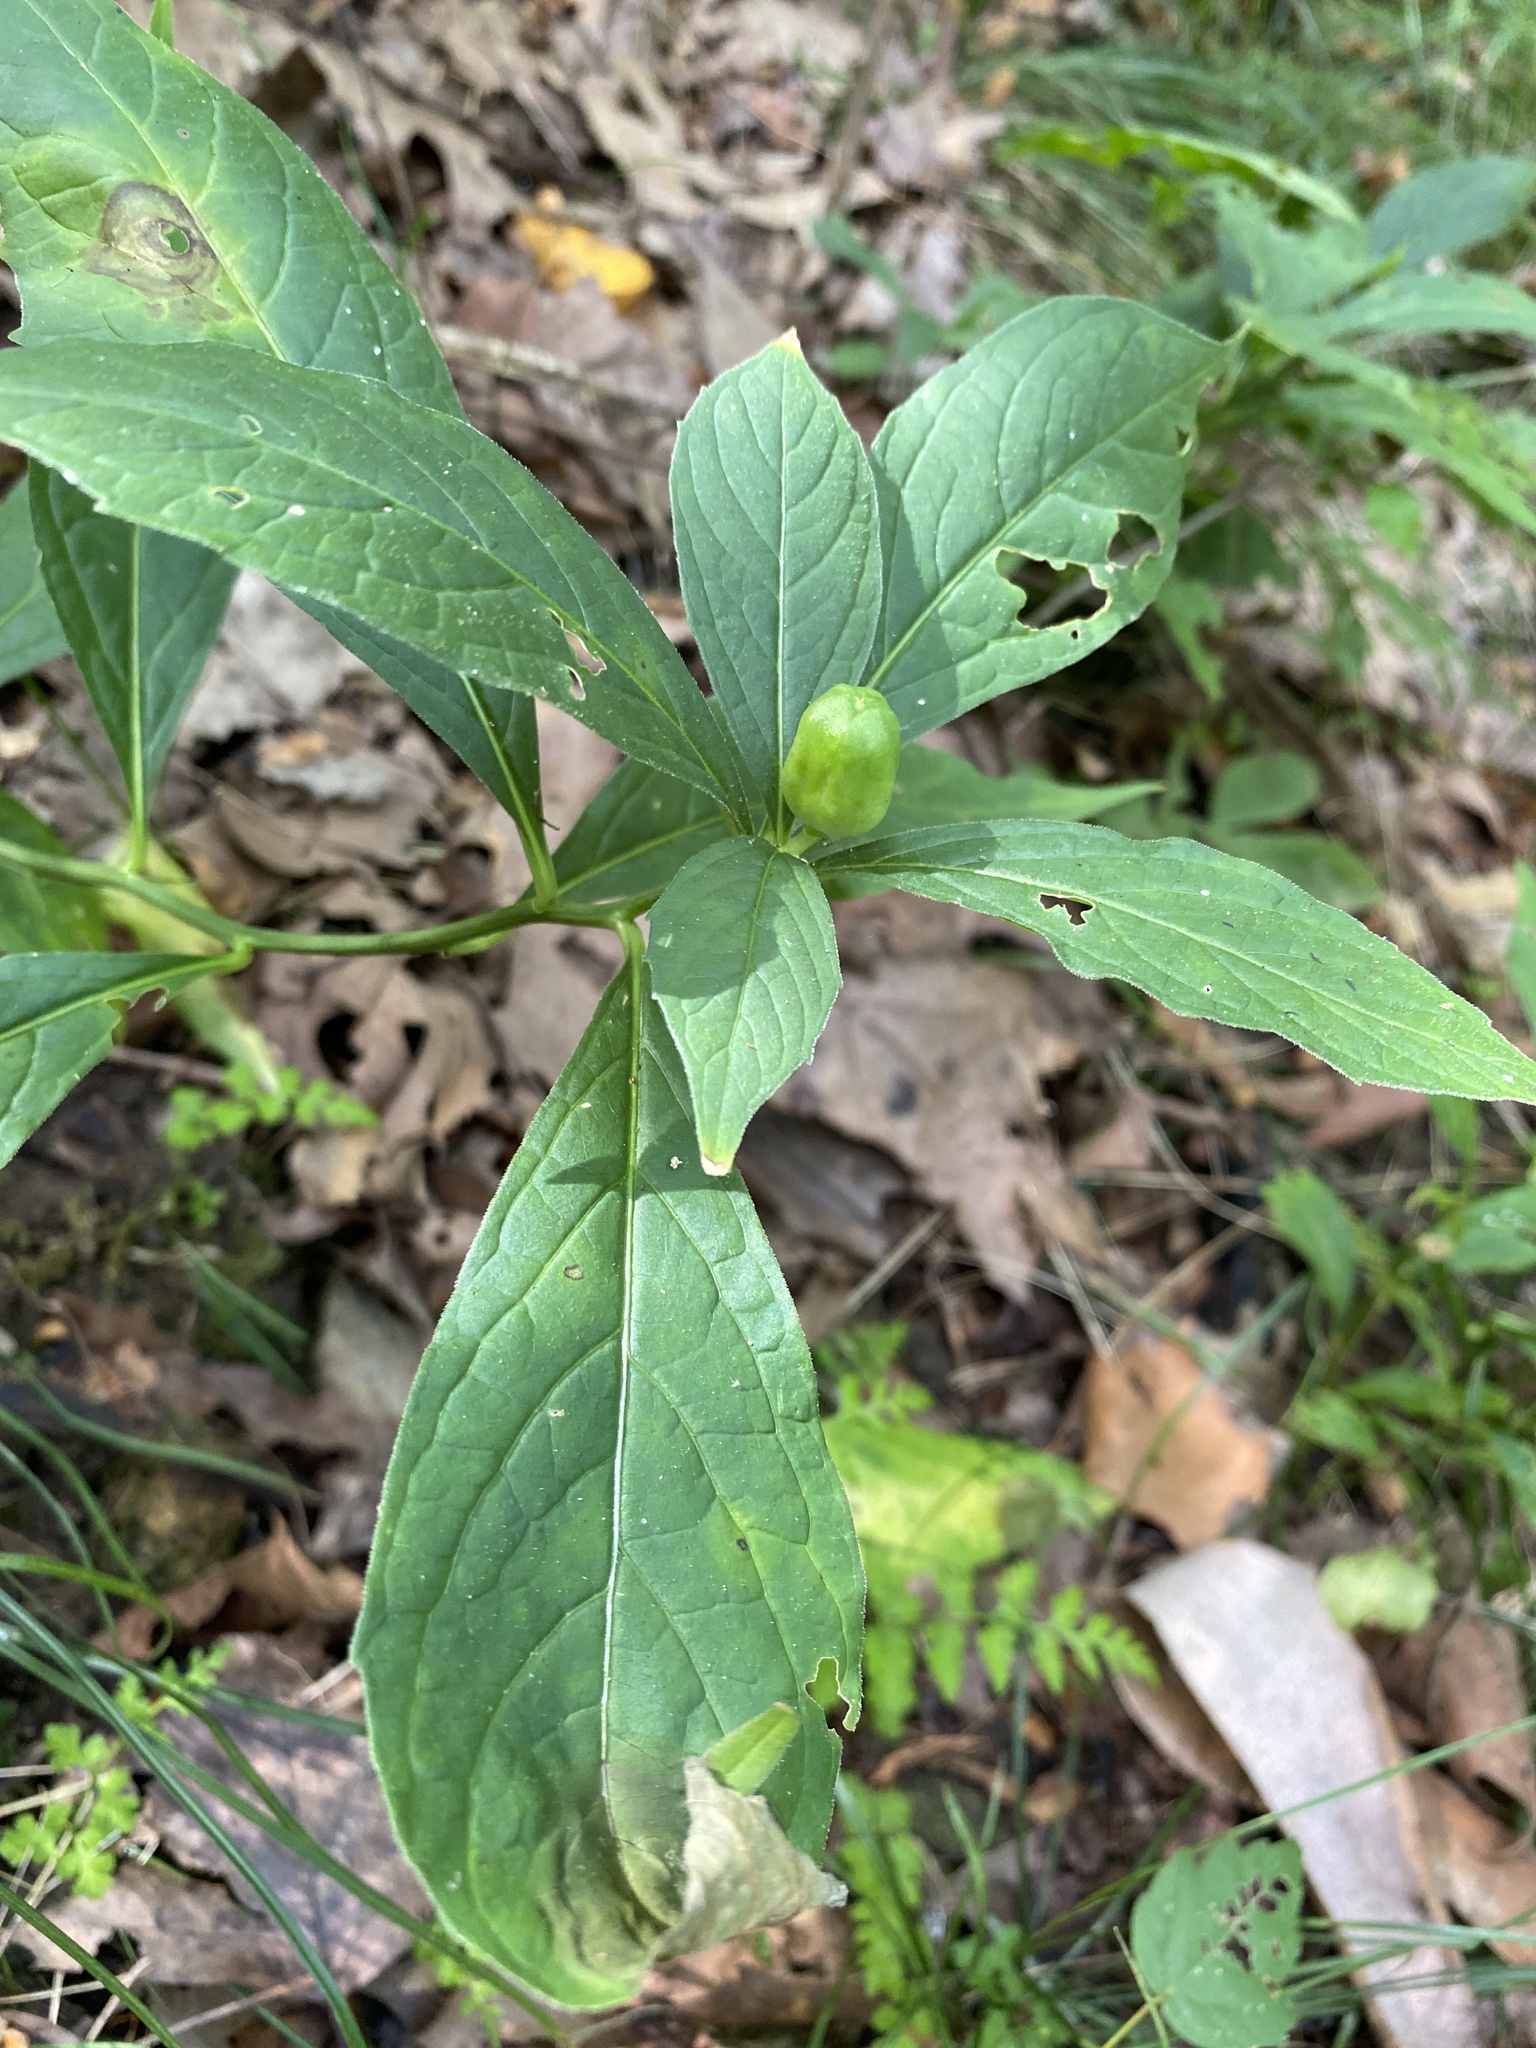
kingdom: Plantae
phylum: Tracheophyta
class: Magnoliopsida
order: Malpighiales
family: Violaceae
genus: Cubelium
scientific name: Cubelium concolor
